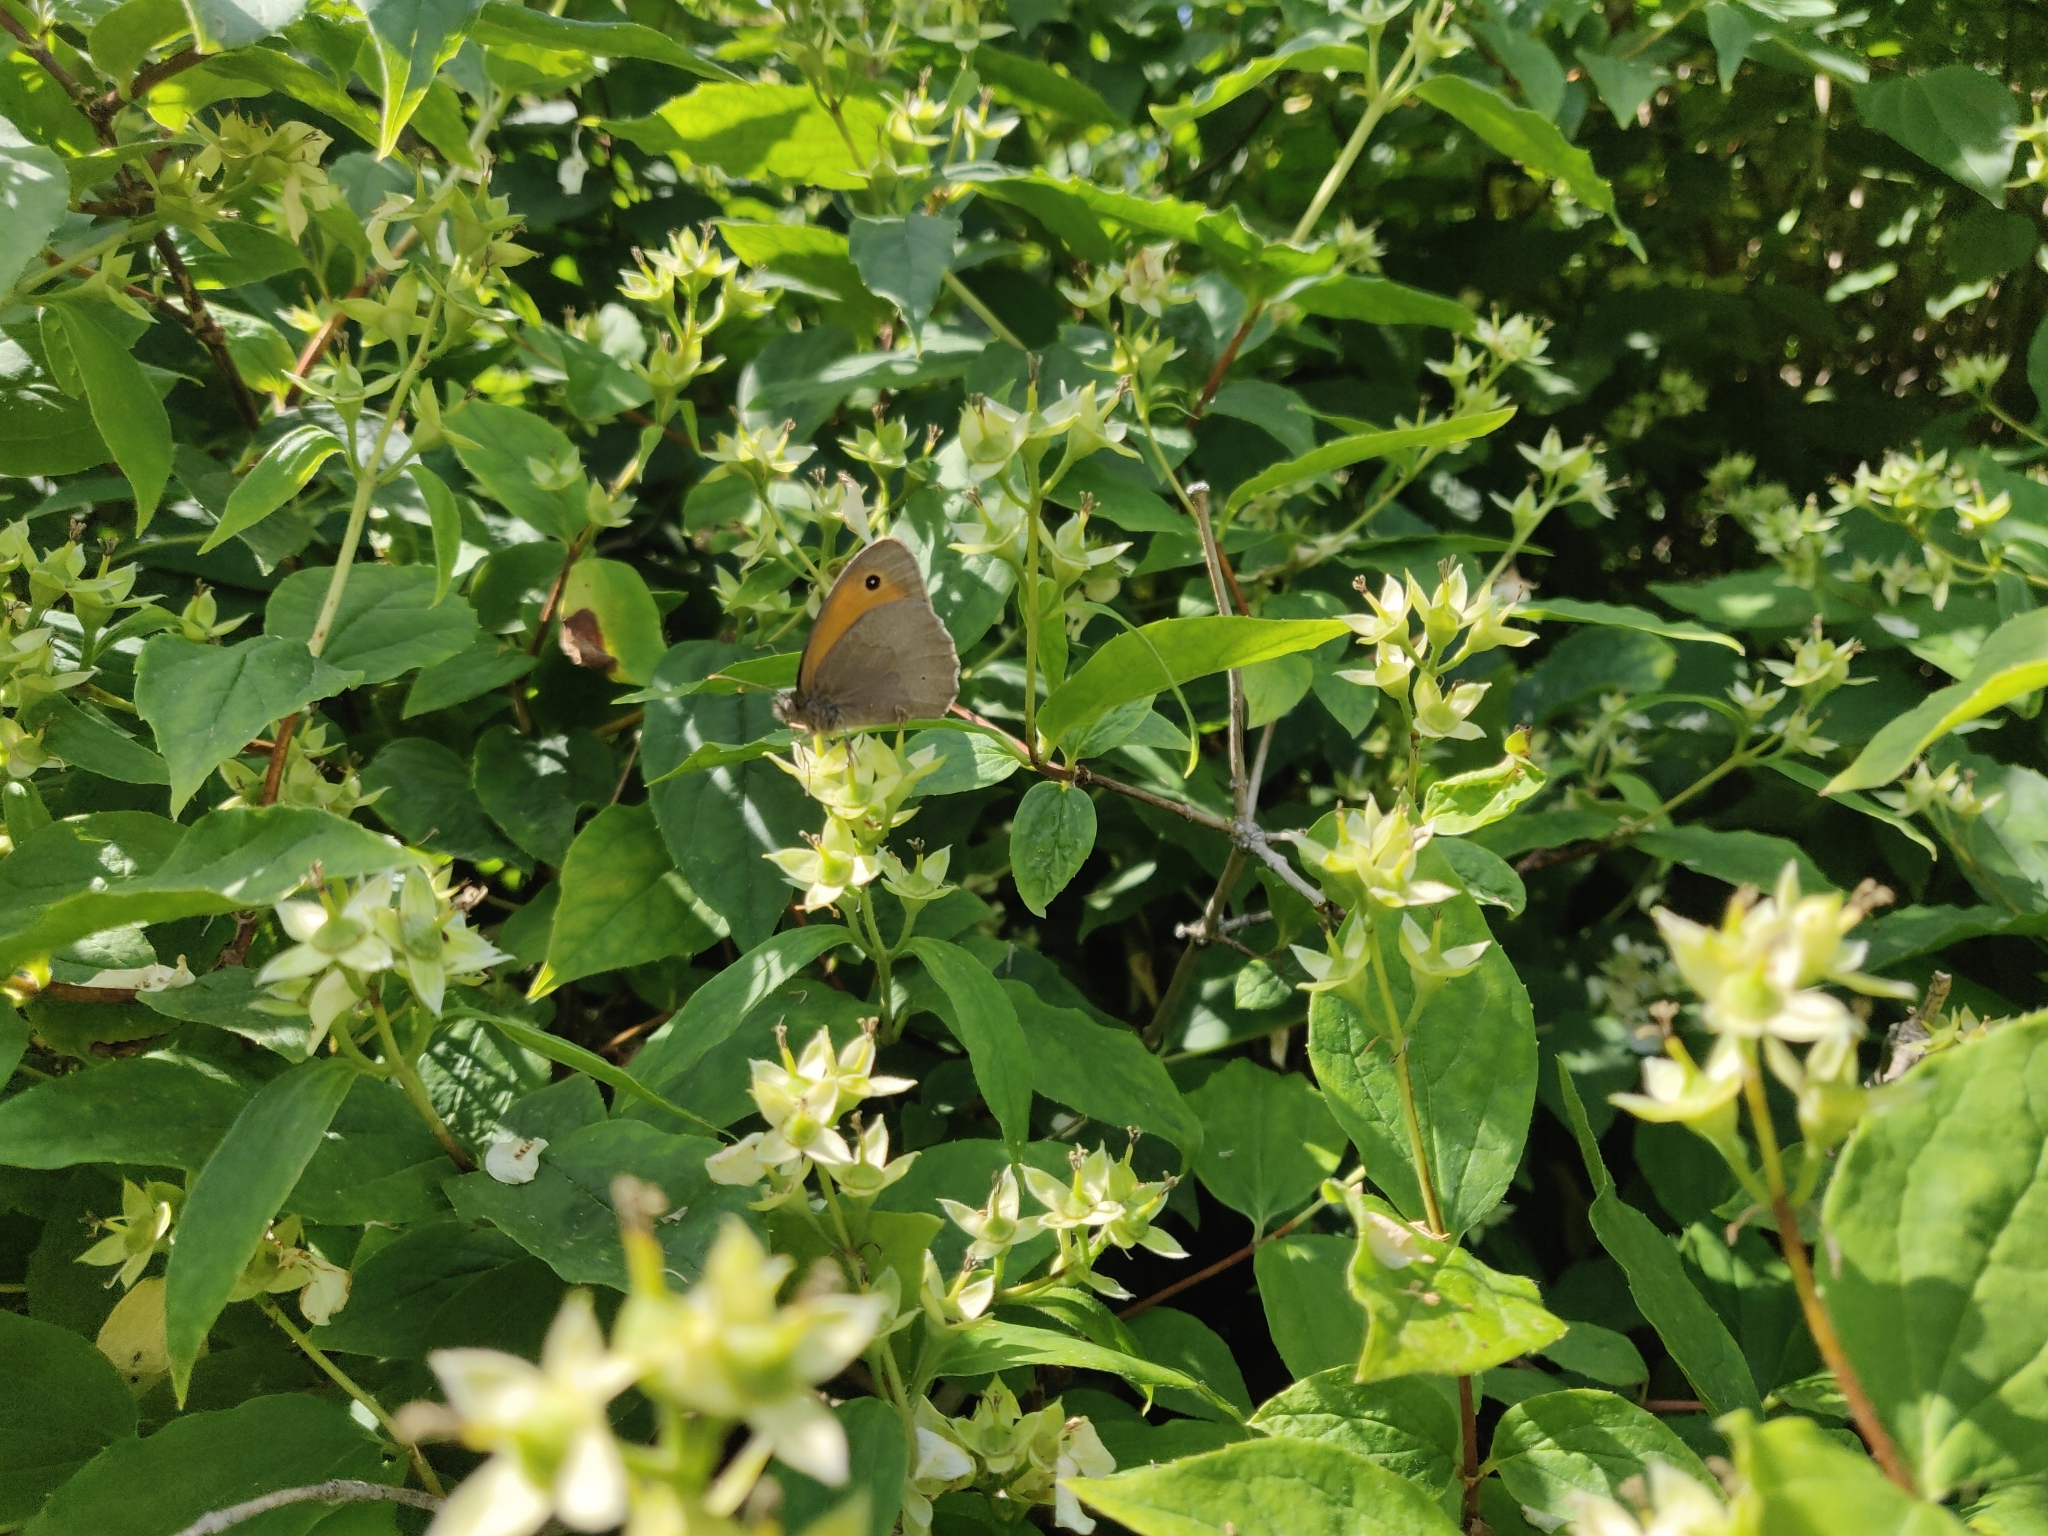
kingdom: Animalia
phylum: Arthropoda
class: Insecta
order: Lepidoptera
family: Nymphalidae
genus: Maniola
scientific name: Maniola jurtina
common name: Meadow brown
